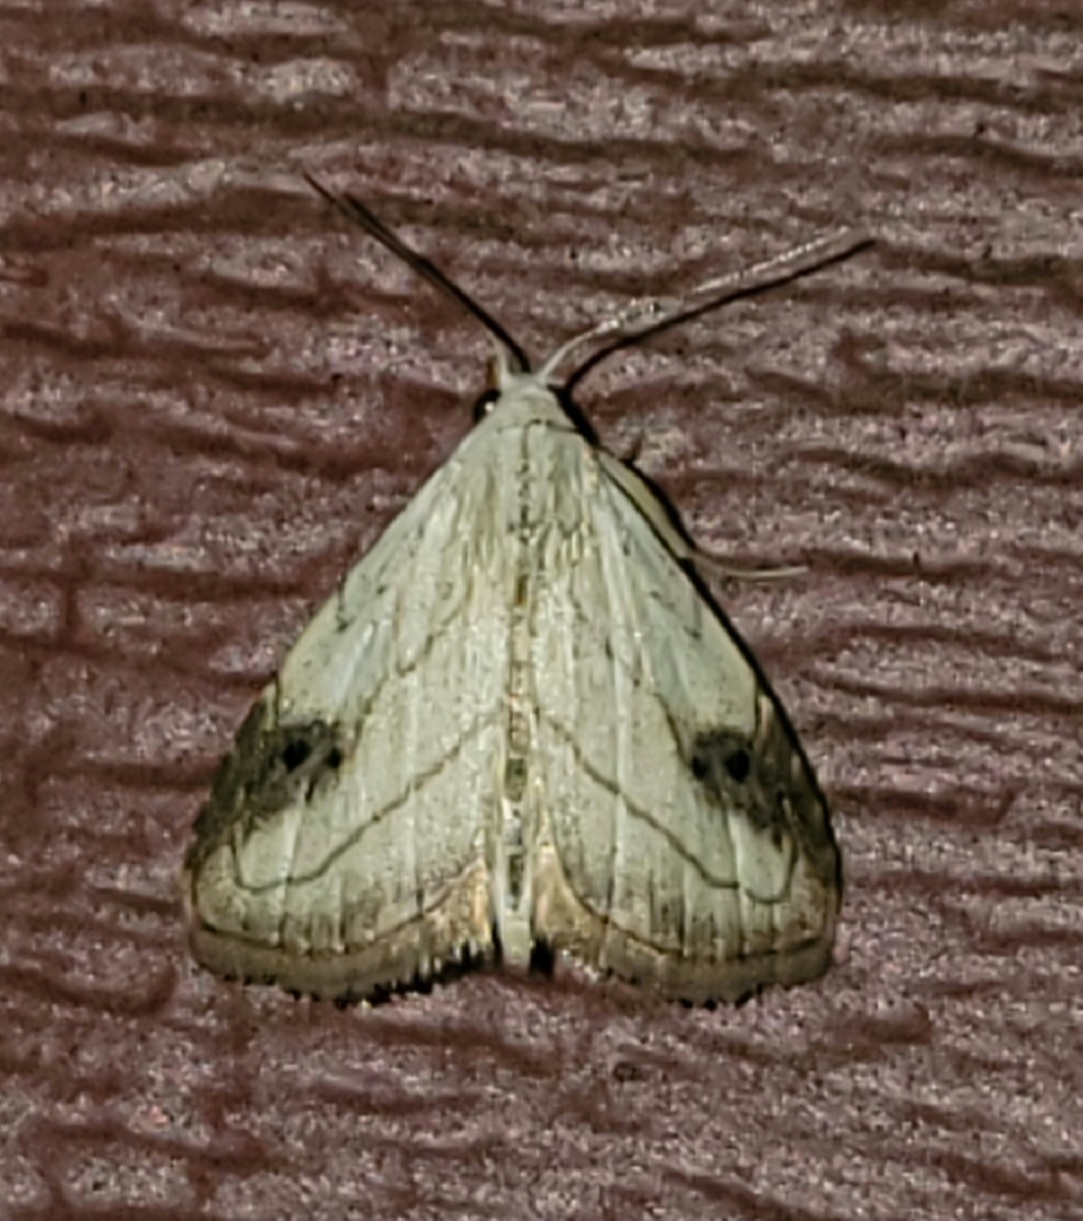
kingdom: Animalia
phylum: Arthropoda
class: Insecta
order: Lepidoptera
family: Erebidae
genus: Rivula
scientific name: Rivula propinqualis
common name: Spotted grass moth
